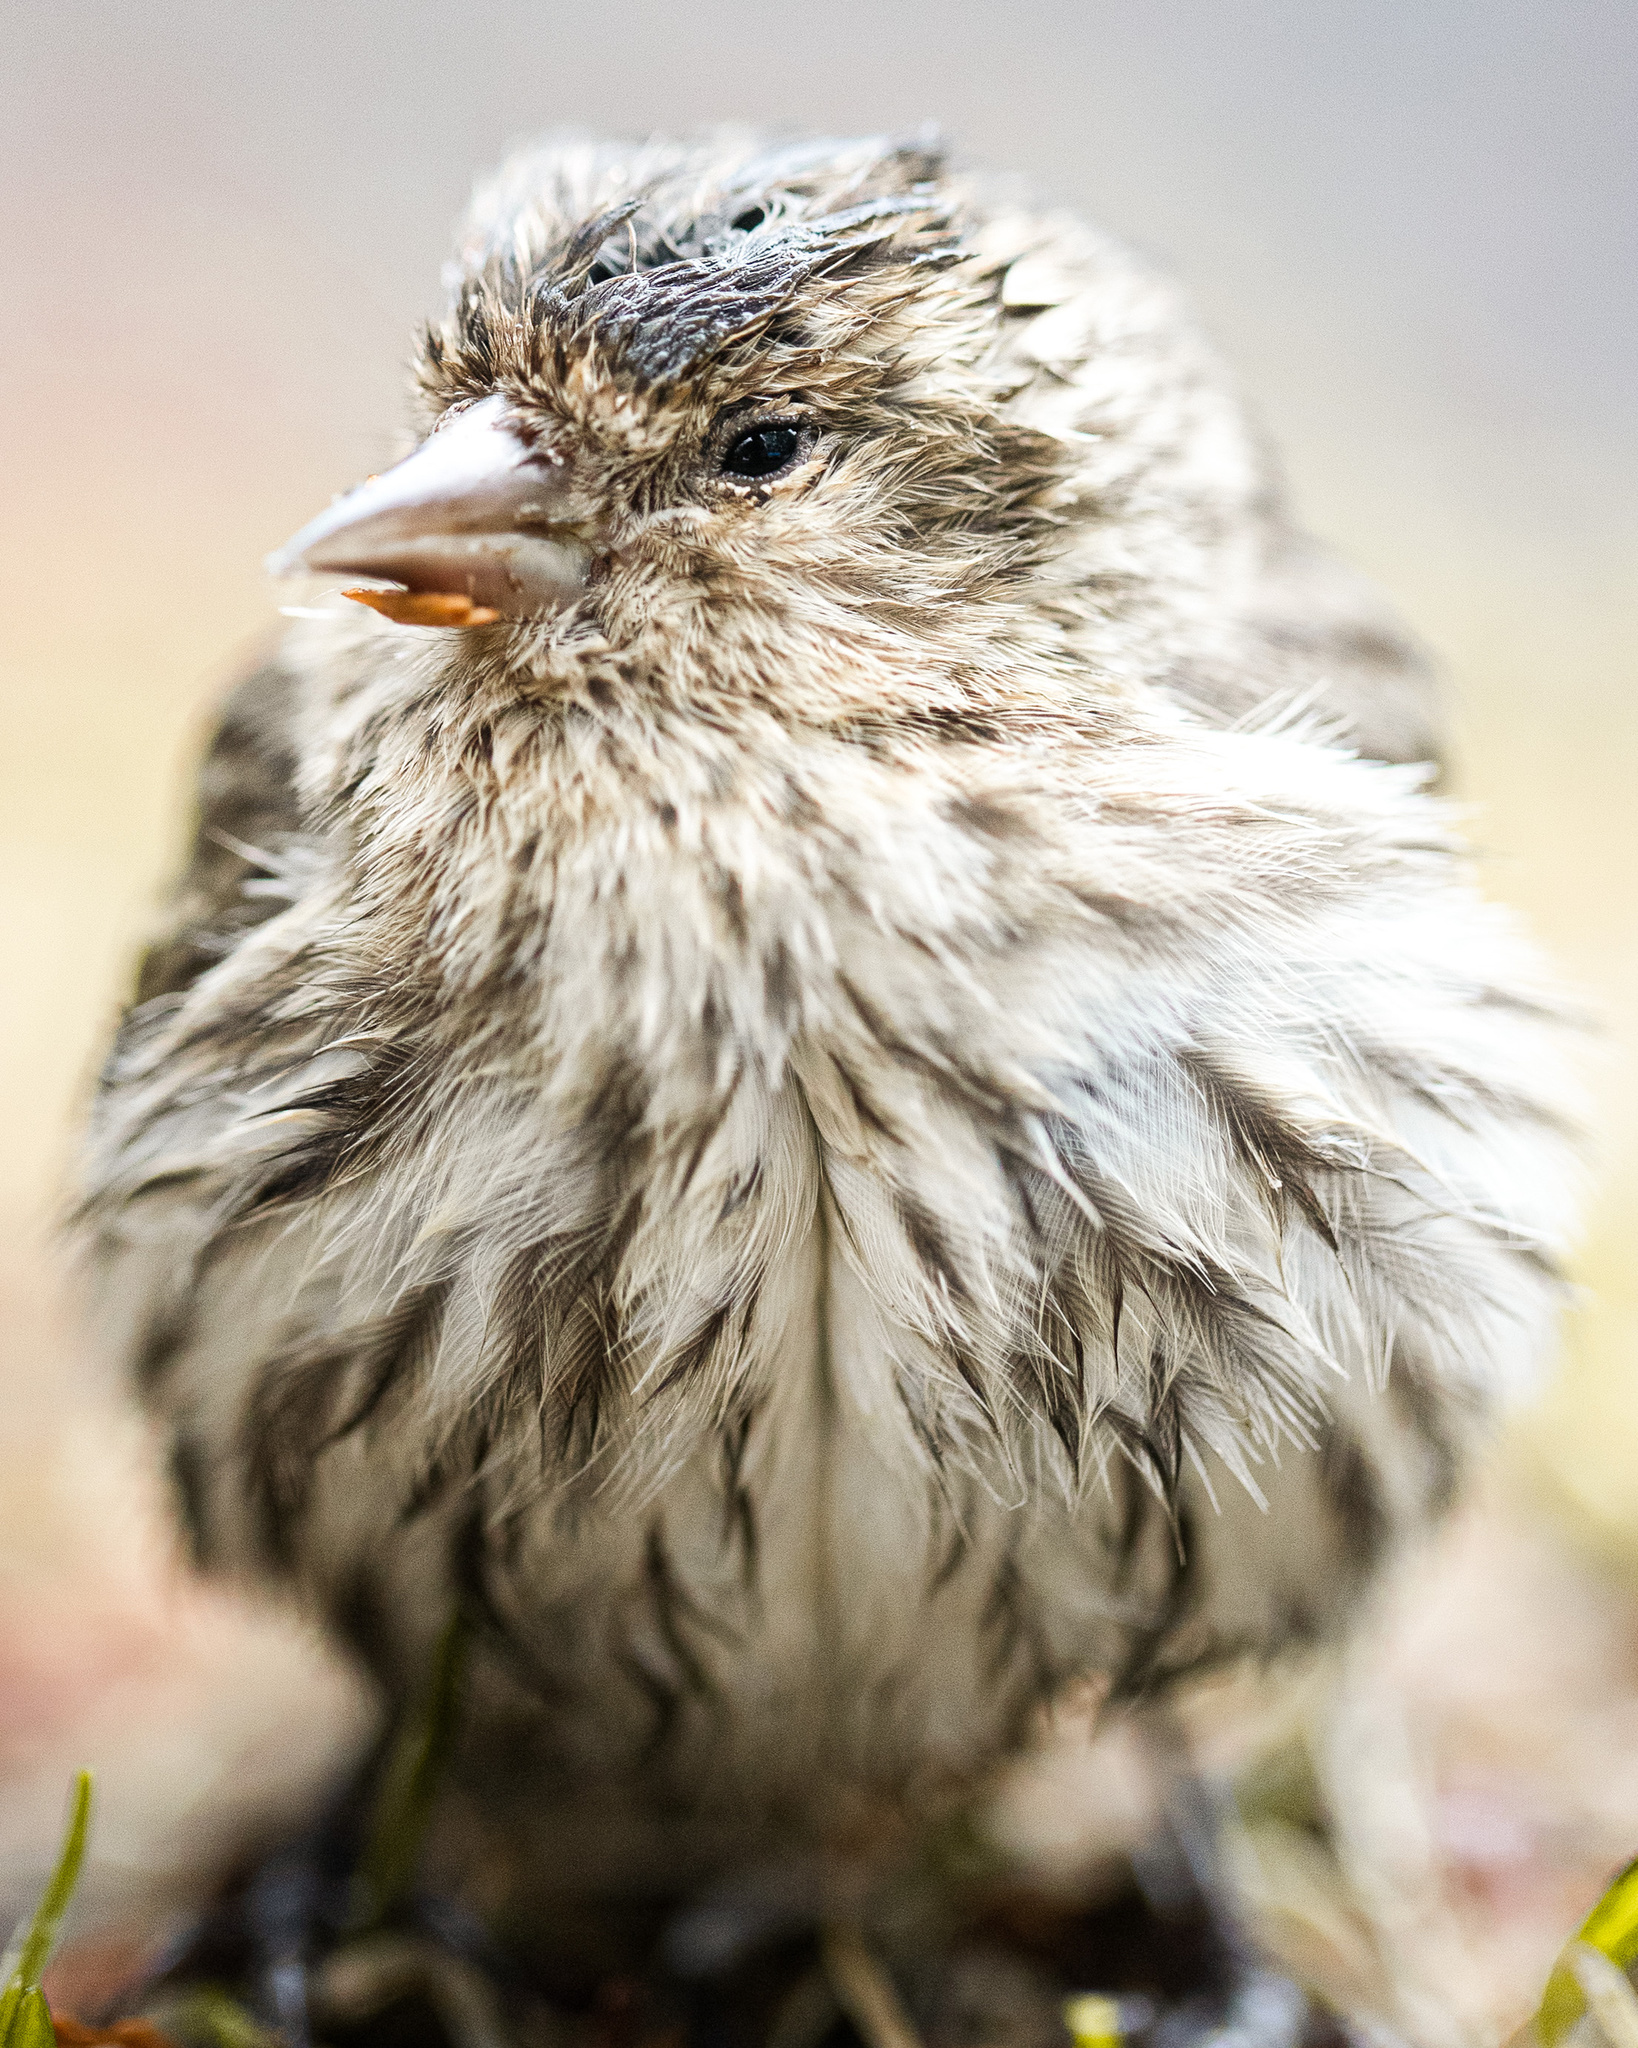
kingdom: Animalia
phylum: Chordata
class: Aves
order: Passeriformes
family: Fringillidae
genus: Spinus
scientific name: Spinus pinus
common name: Pine siskin
